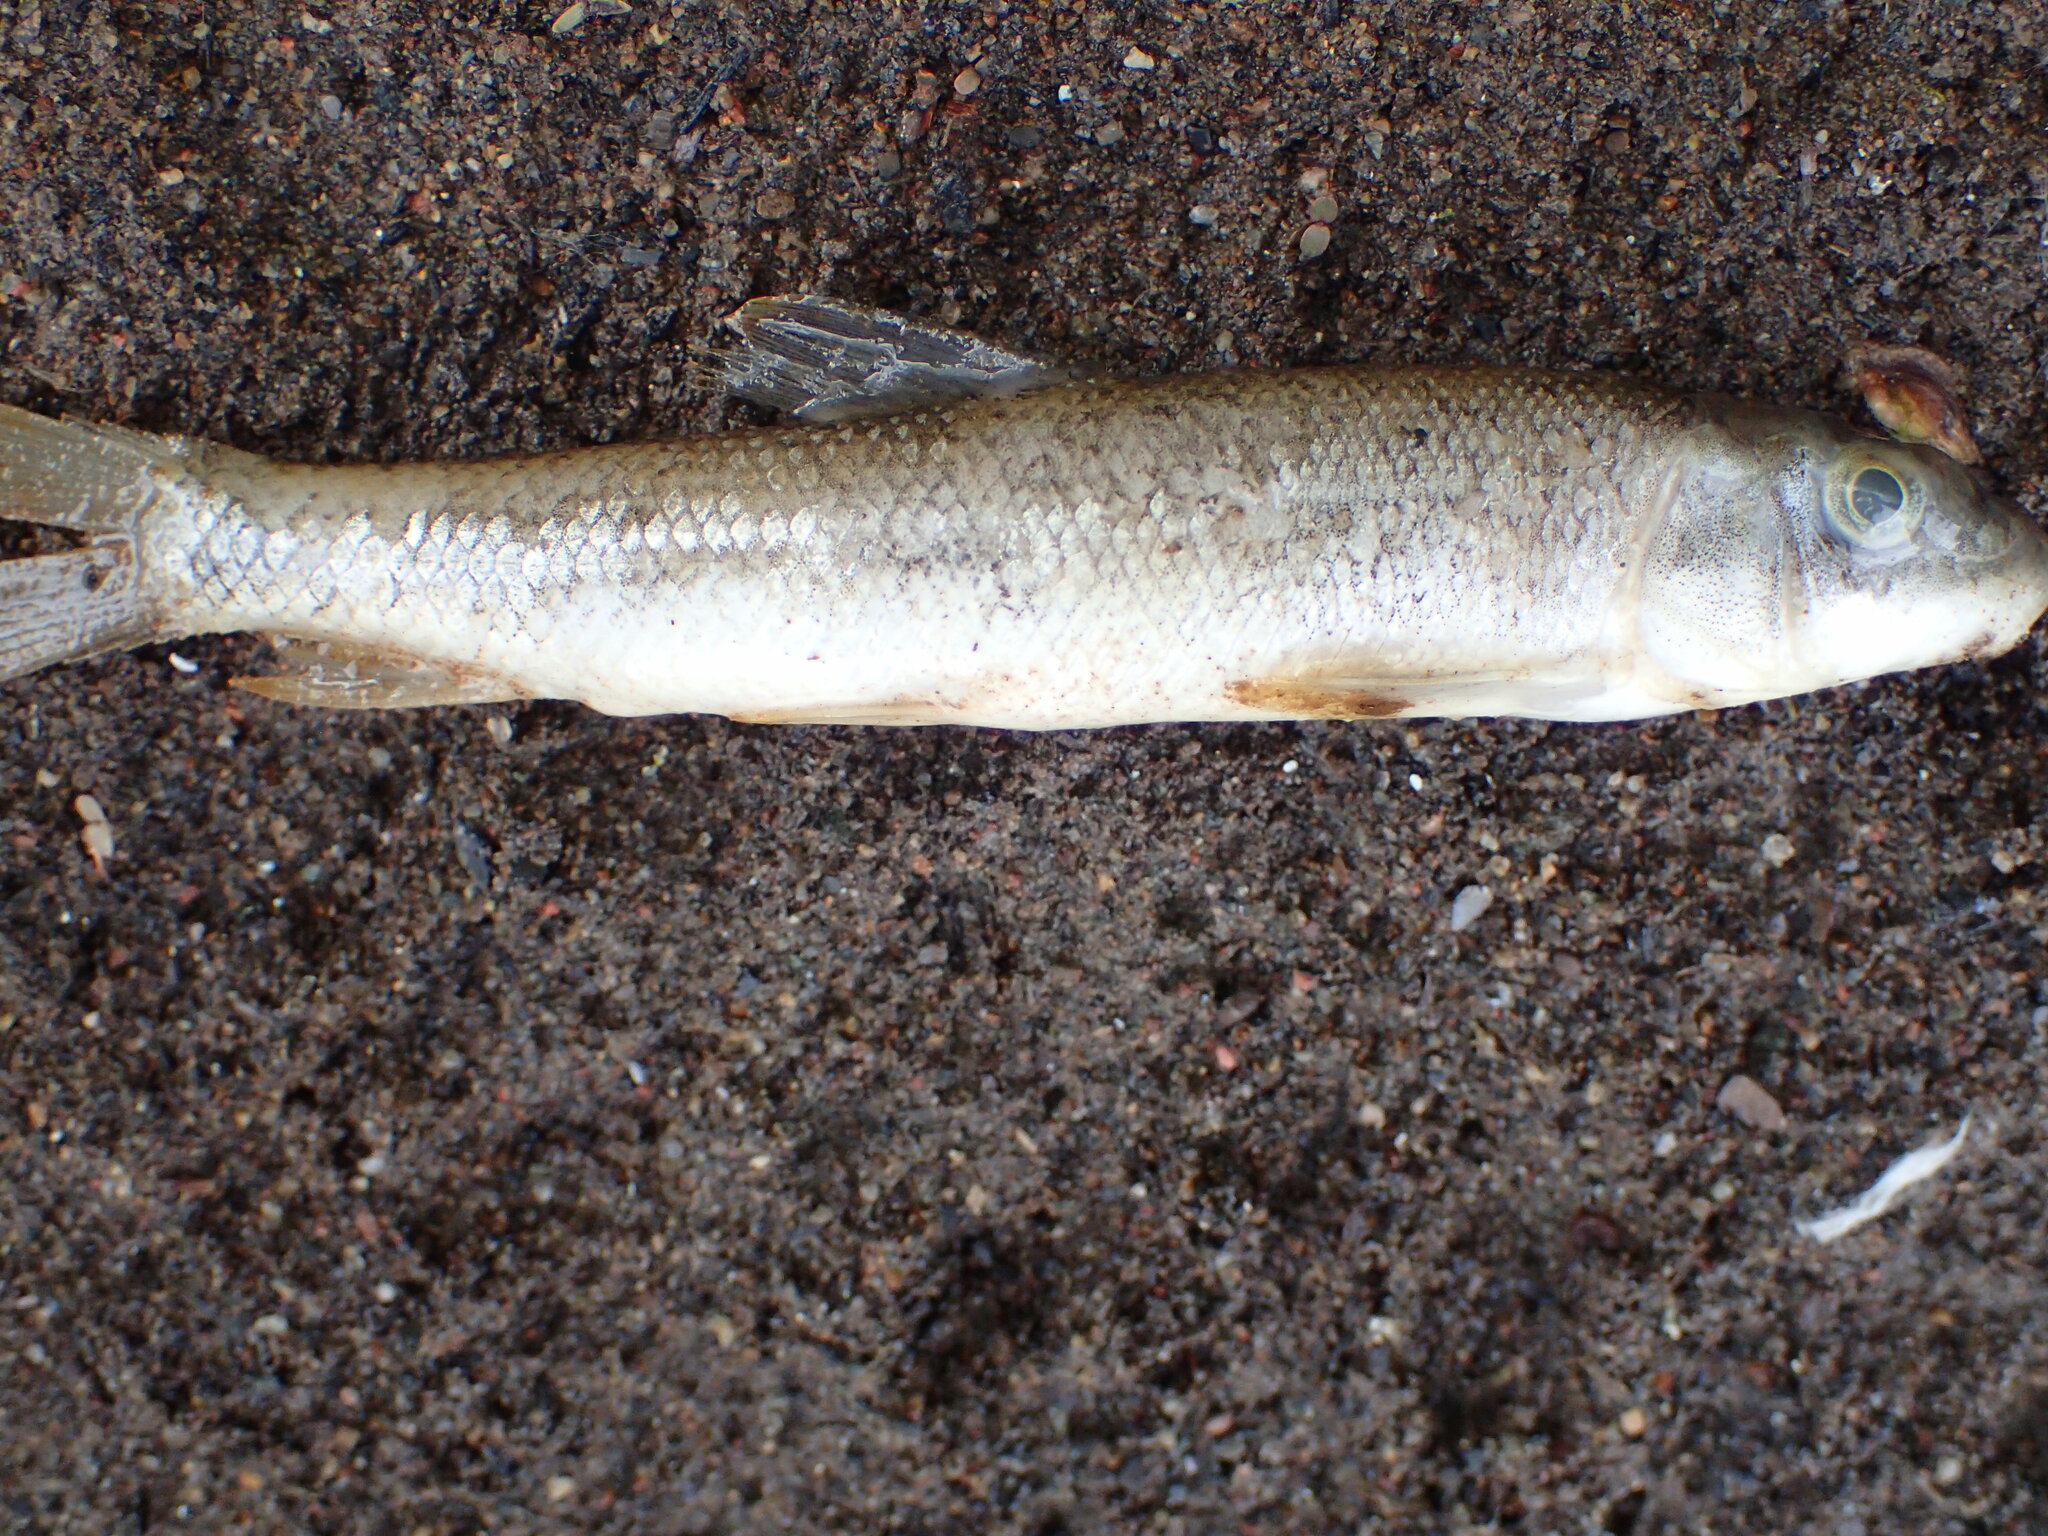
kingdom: Animalia
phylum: Chordata
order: Cypriniformes
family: Catostomidae
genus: Catostomus
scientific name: Catostomus commersonii
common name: White sucker
